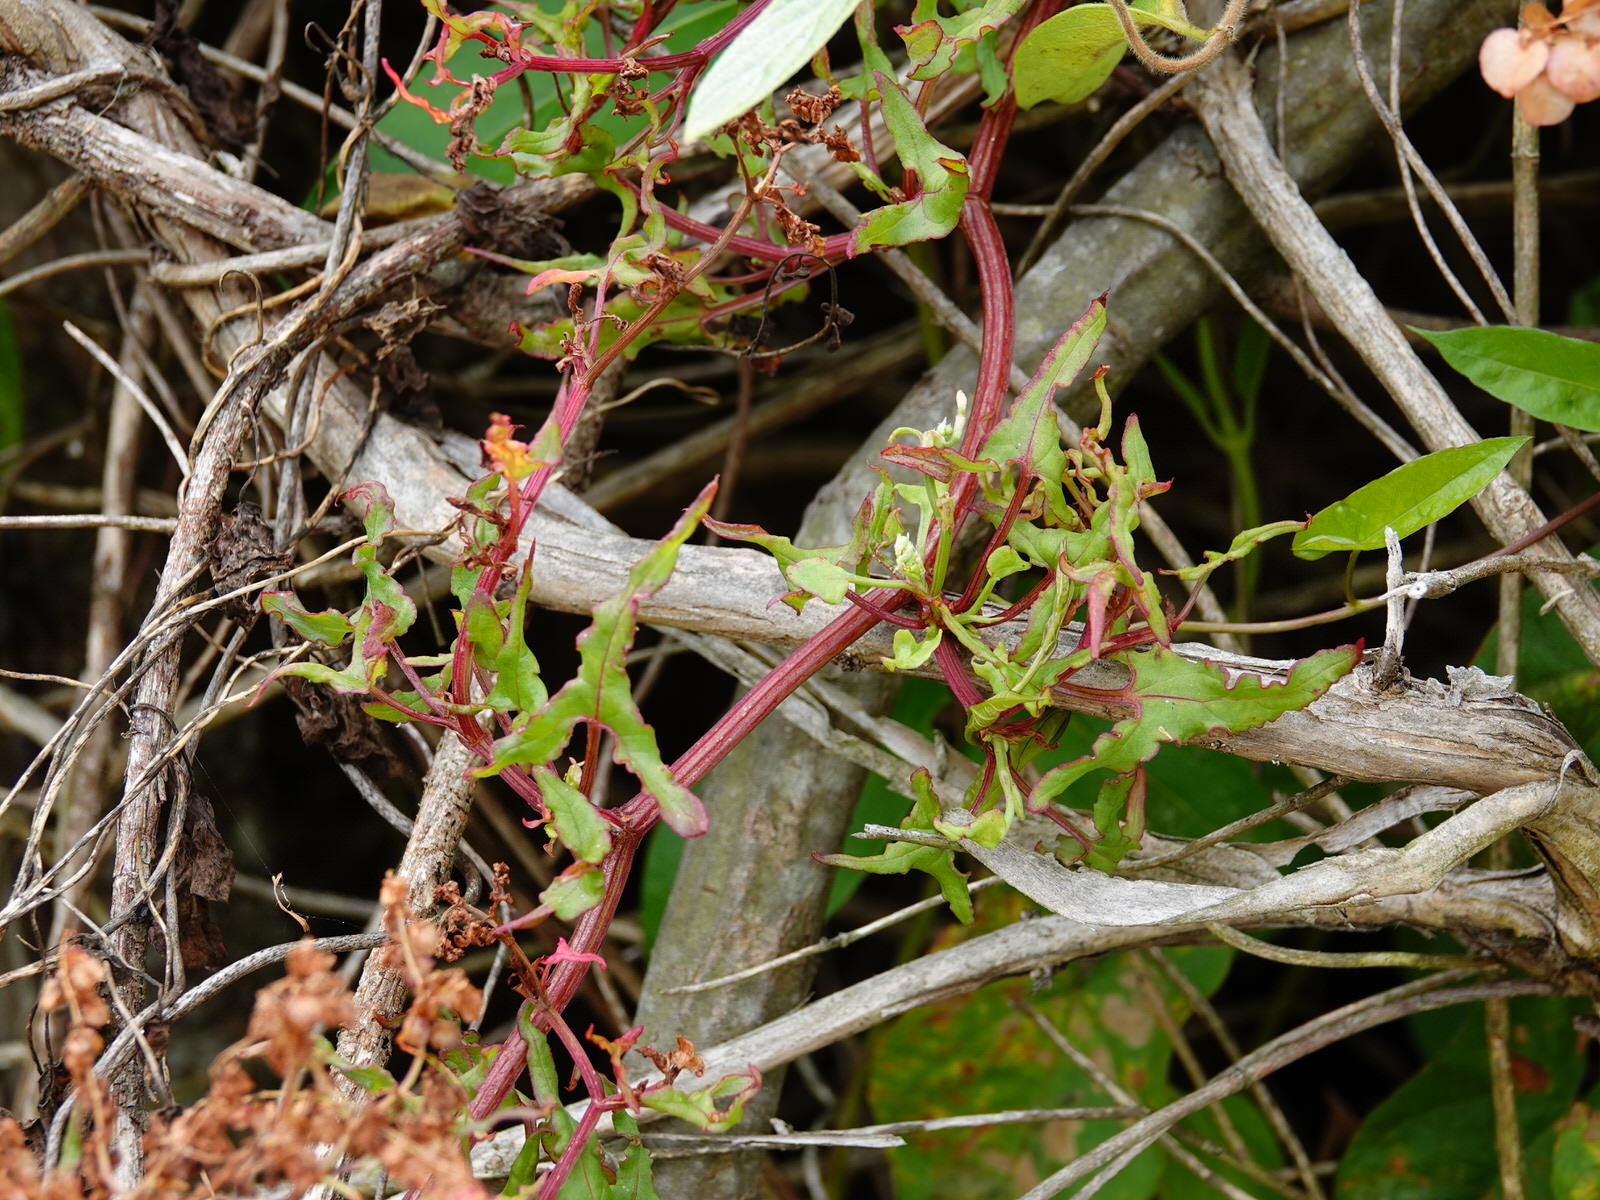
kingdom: Plantae
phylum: Tracheophyta
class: Magnoliopsida
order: Caryophyllales
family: Polygonaceae
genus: Rumex
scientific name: Rumex sagittatus
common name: Climbing dock
